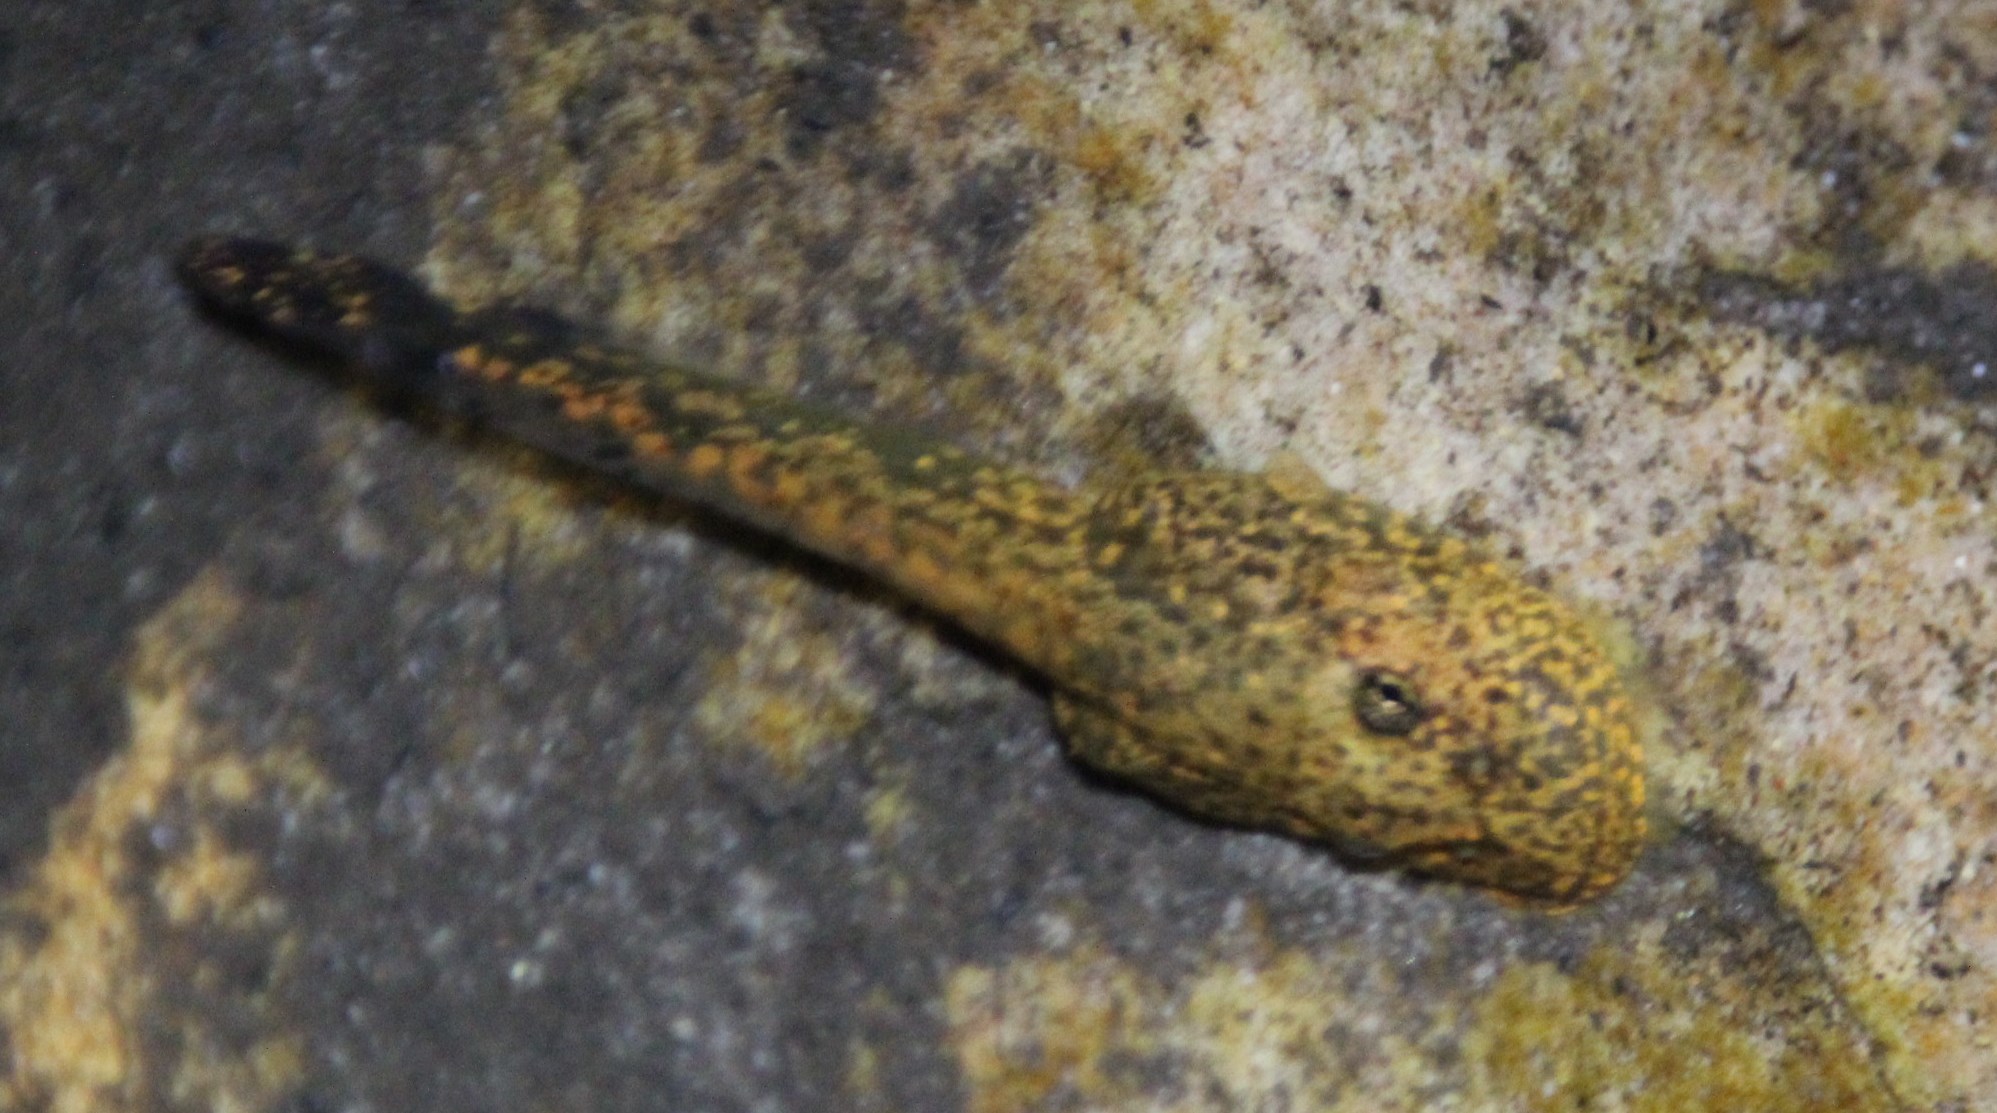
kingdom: Animalia
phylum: Chordata
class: Amphibia
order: Anura
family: Heleophrynidae
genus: Heleophryne
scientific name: Heleophryne depressa
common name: Cederberg ghost frog
